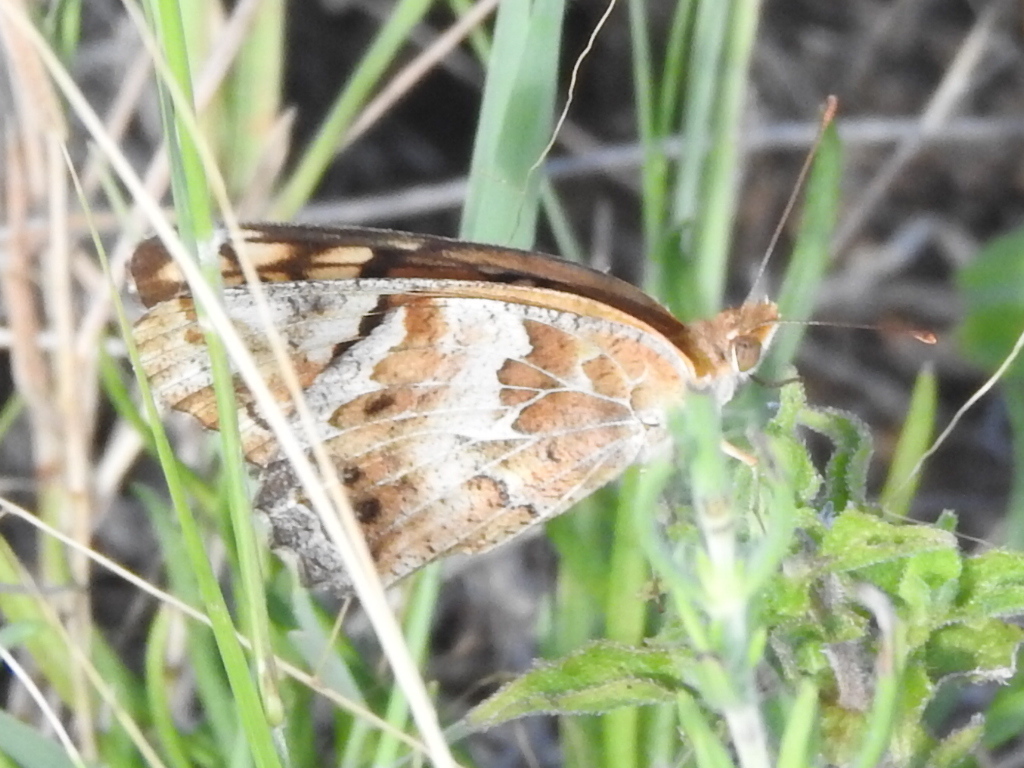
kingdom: Animalia
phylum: Arthropoda
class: Insecta
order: Lepidoptera
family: Nymphalidae
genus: Euptoieta
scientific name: Euptoieta claudia
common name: Variegated fritillary
